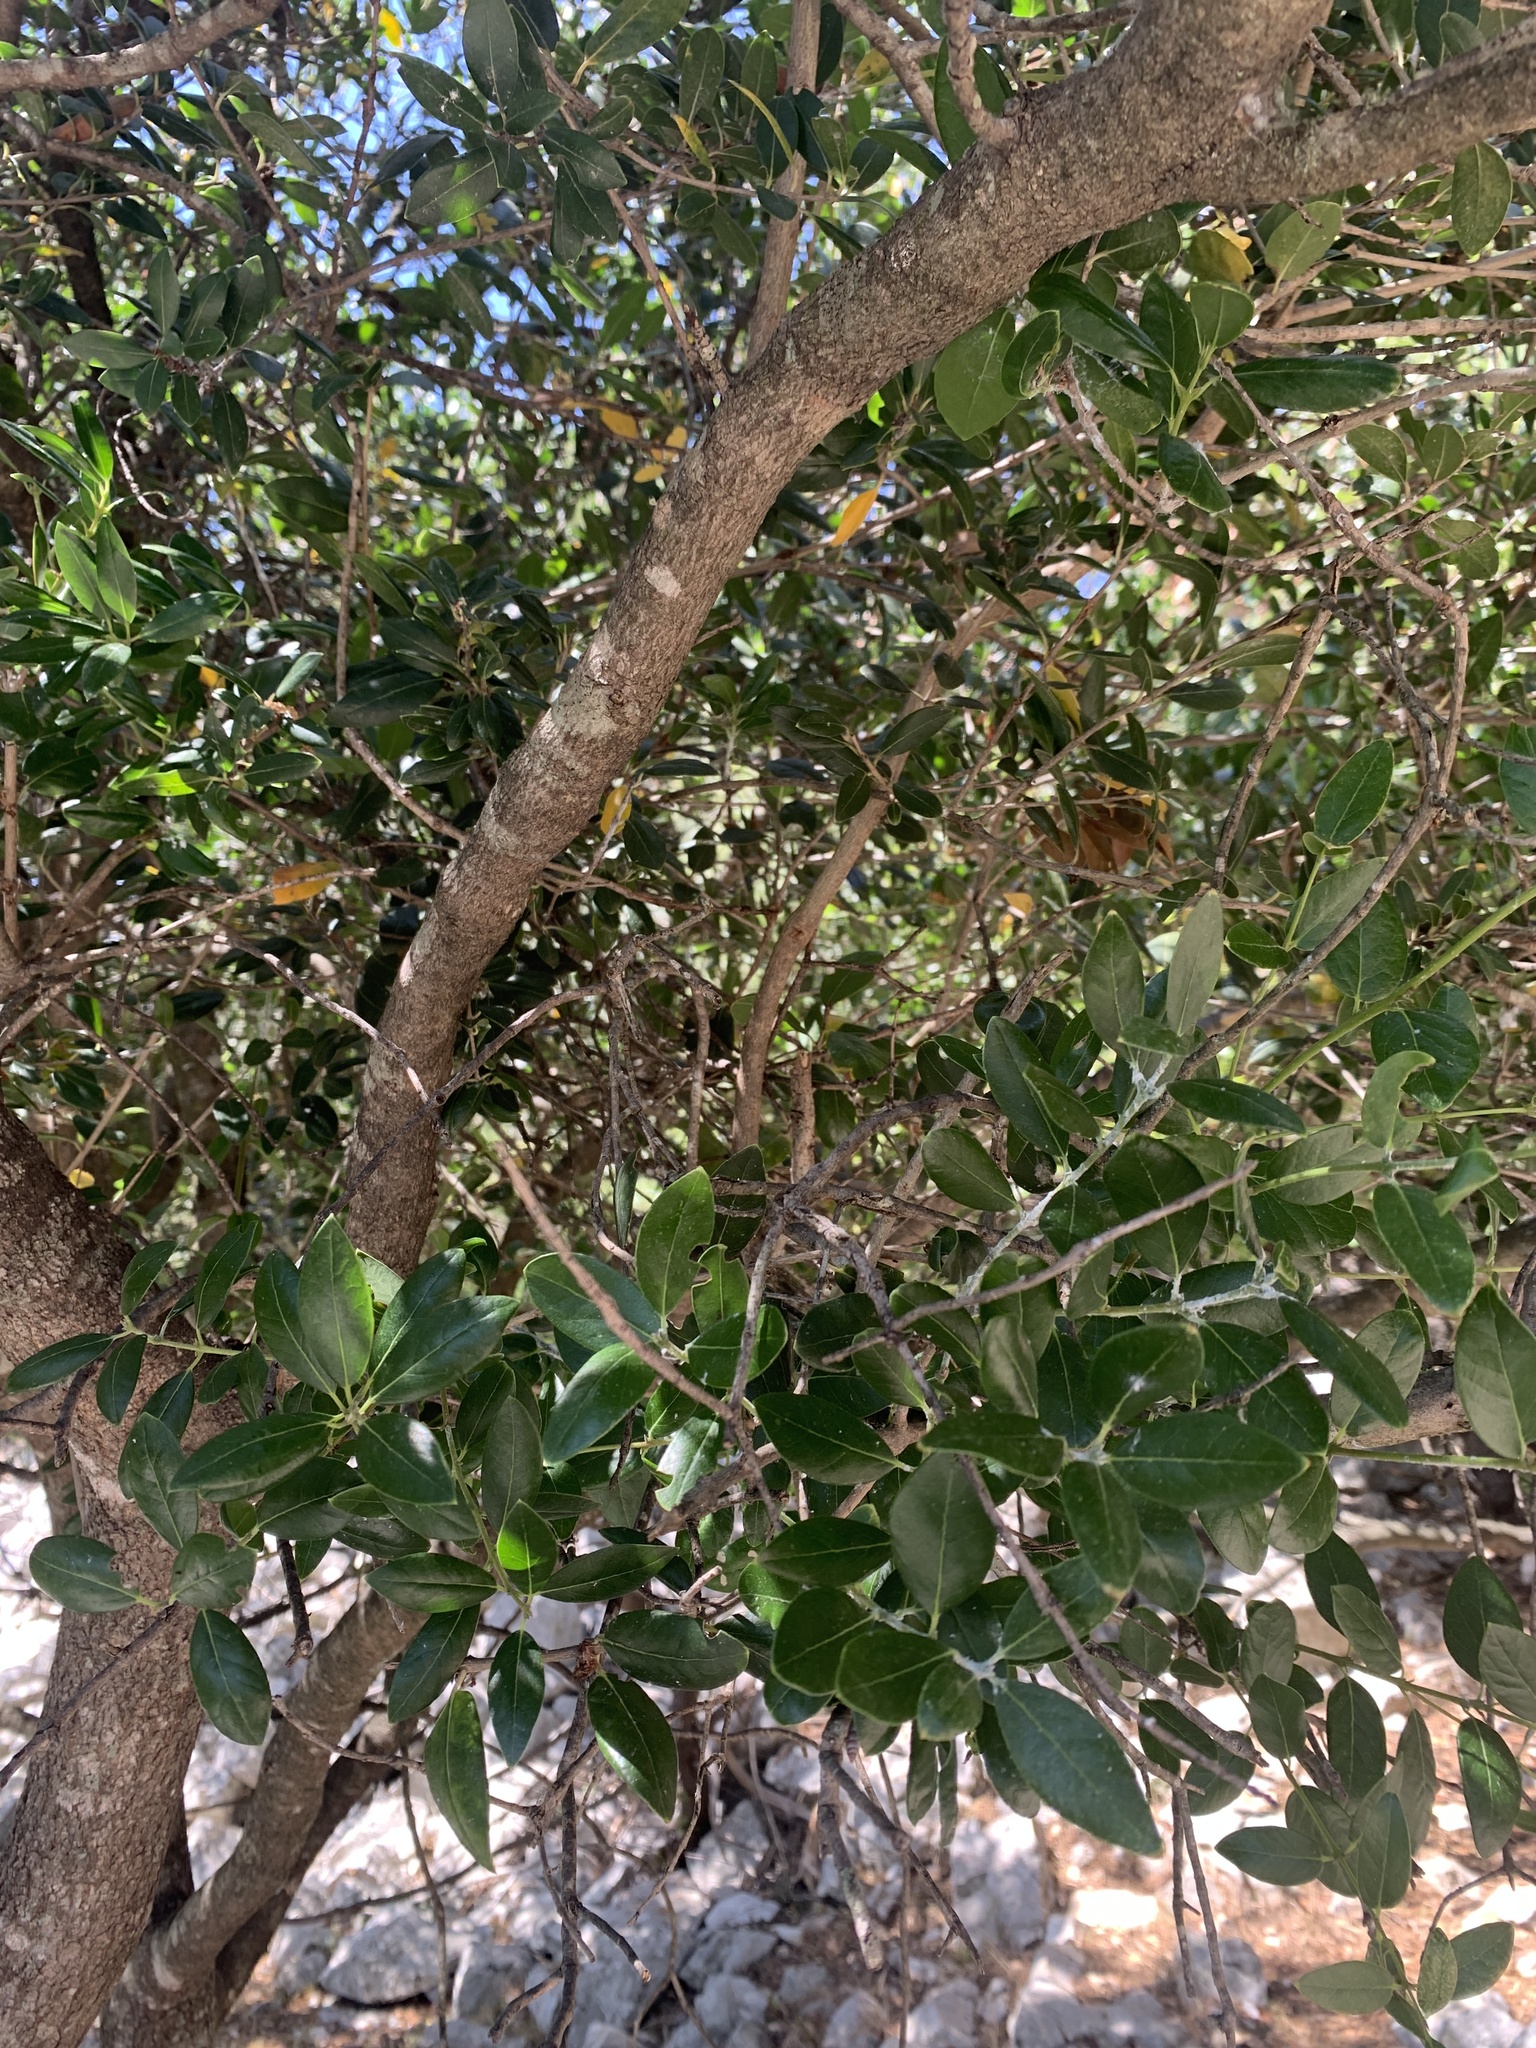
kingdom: Plantae
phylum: Tracheophyta
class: Magnoliopsida
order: Rosales
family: Rhamnaceae
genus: Rhamnus
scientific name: Rhamnus alaternus
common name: Mediterranean buckthorn
